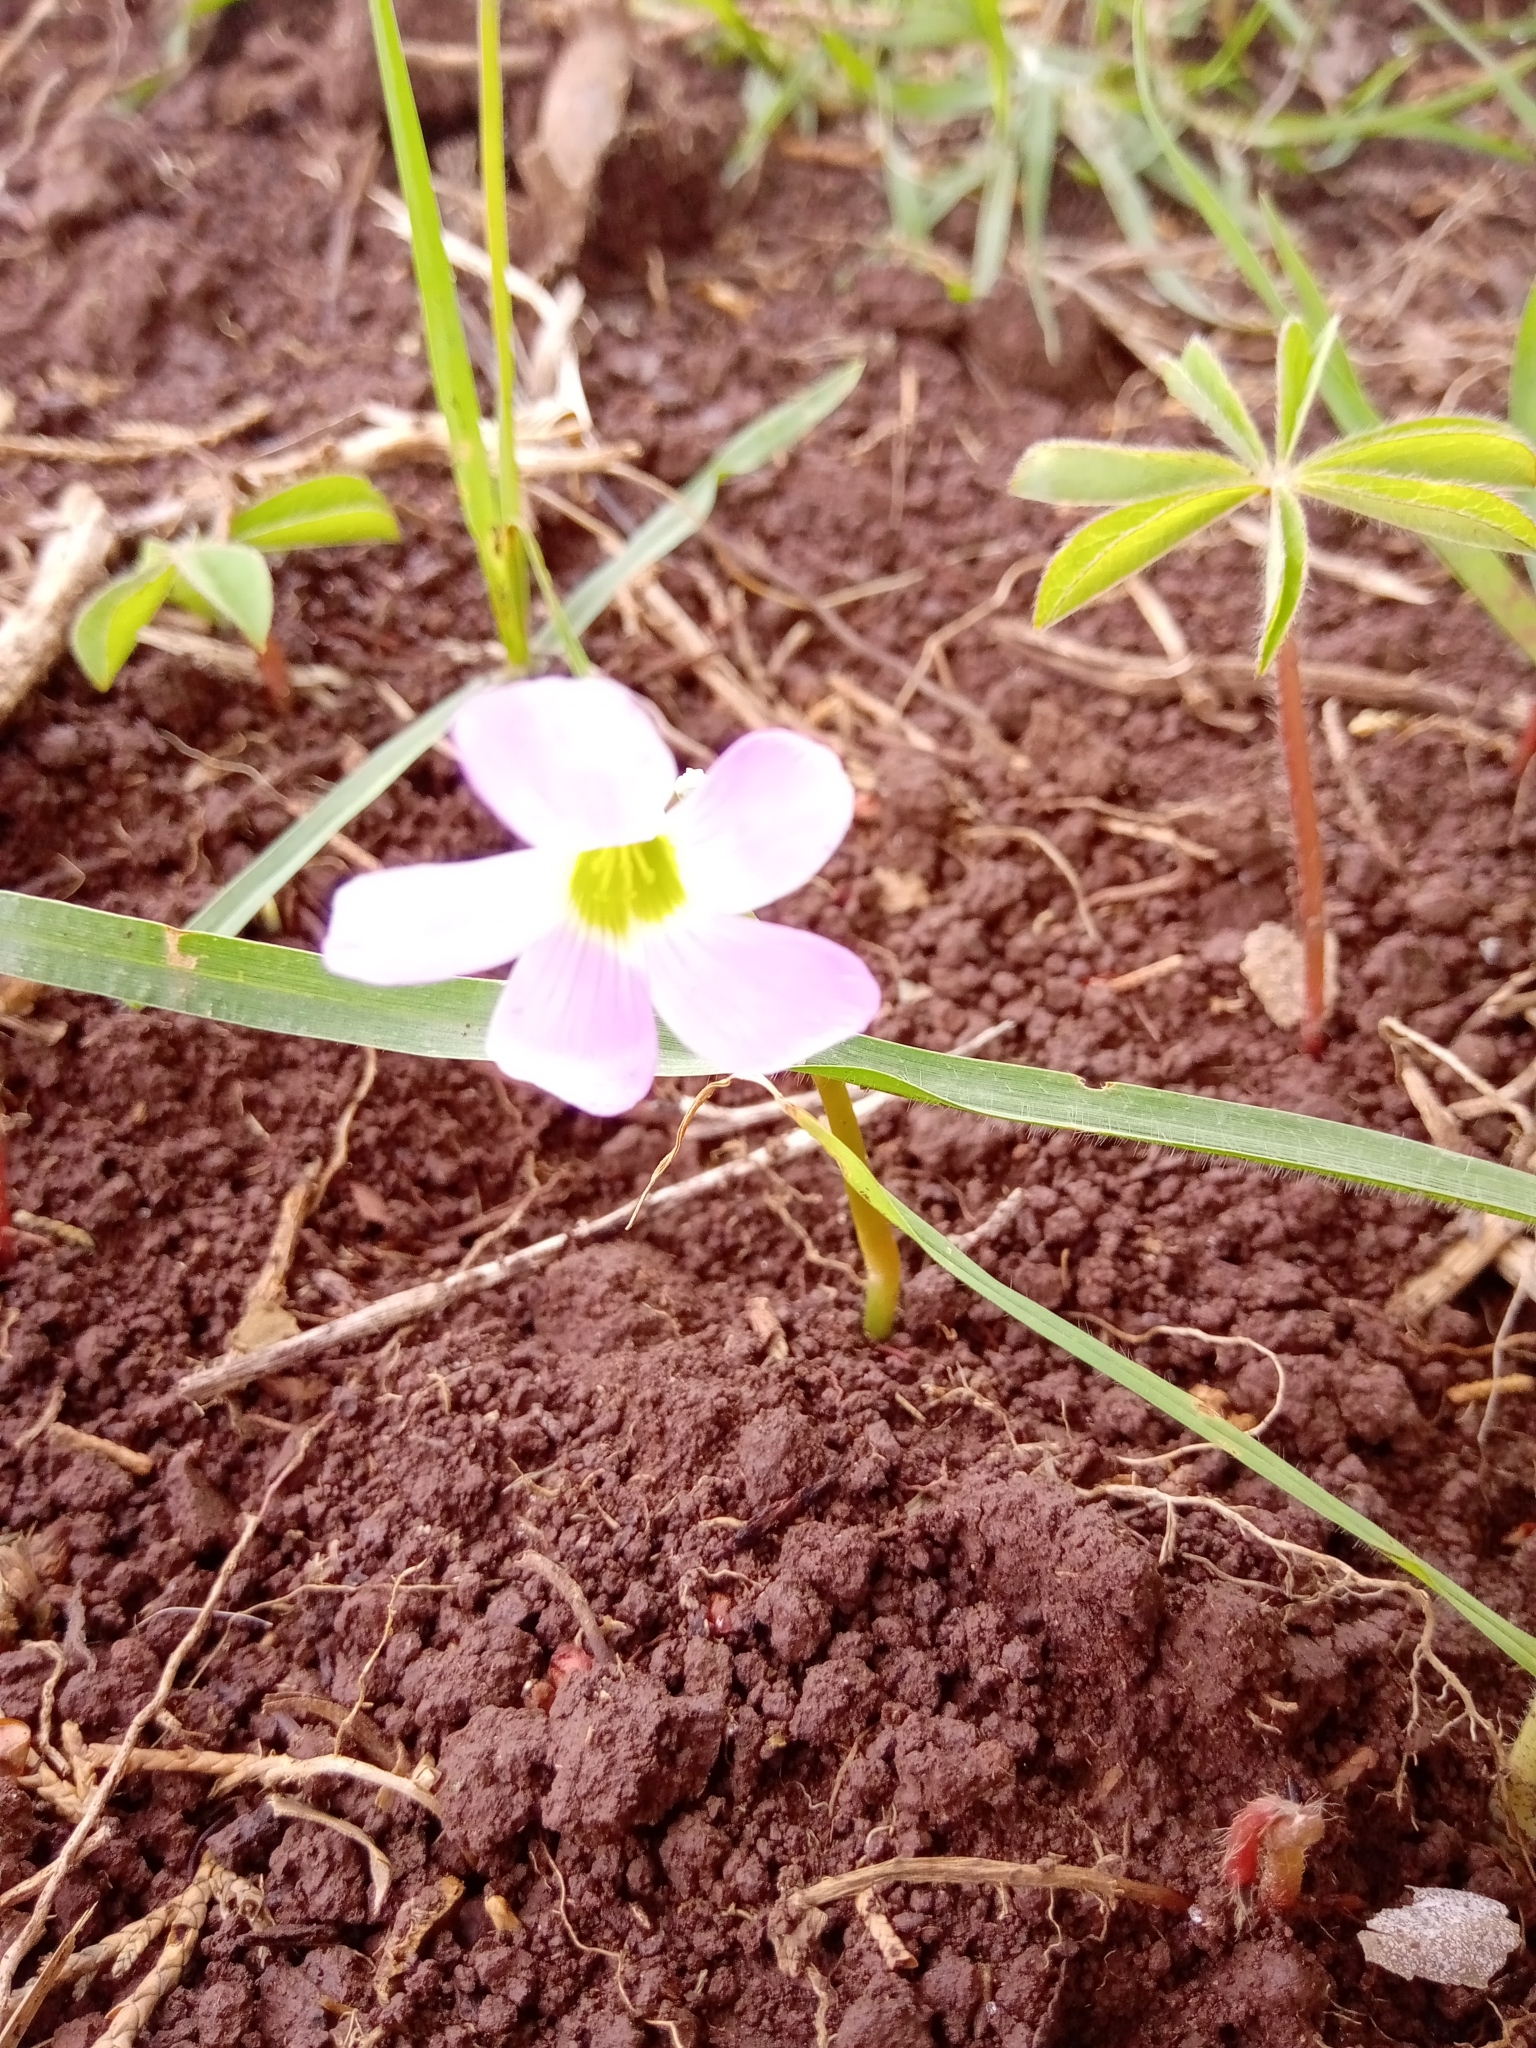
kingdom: Plantae
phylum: Tracheophyta
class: Liliopsida
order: Asparagales
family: Amaryllidaceae
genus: Zephyranthes
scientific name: Zephyranthes fosteri
